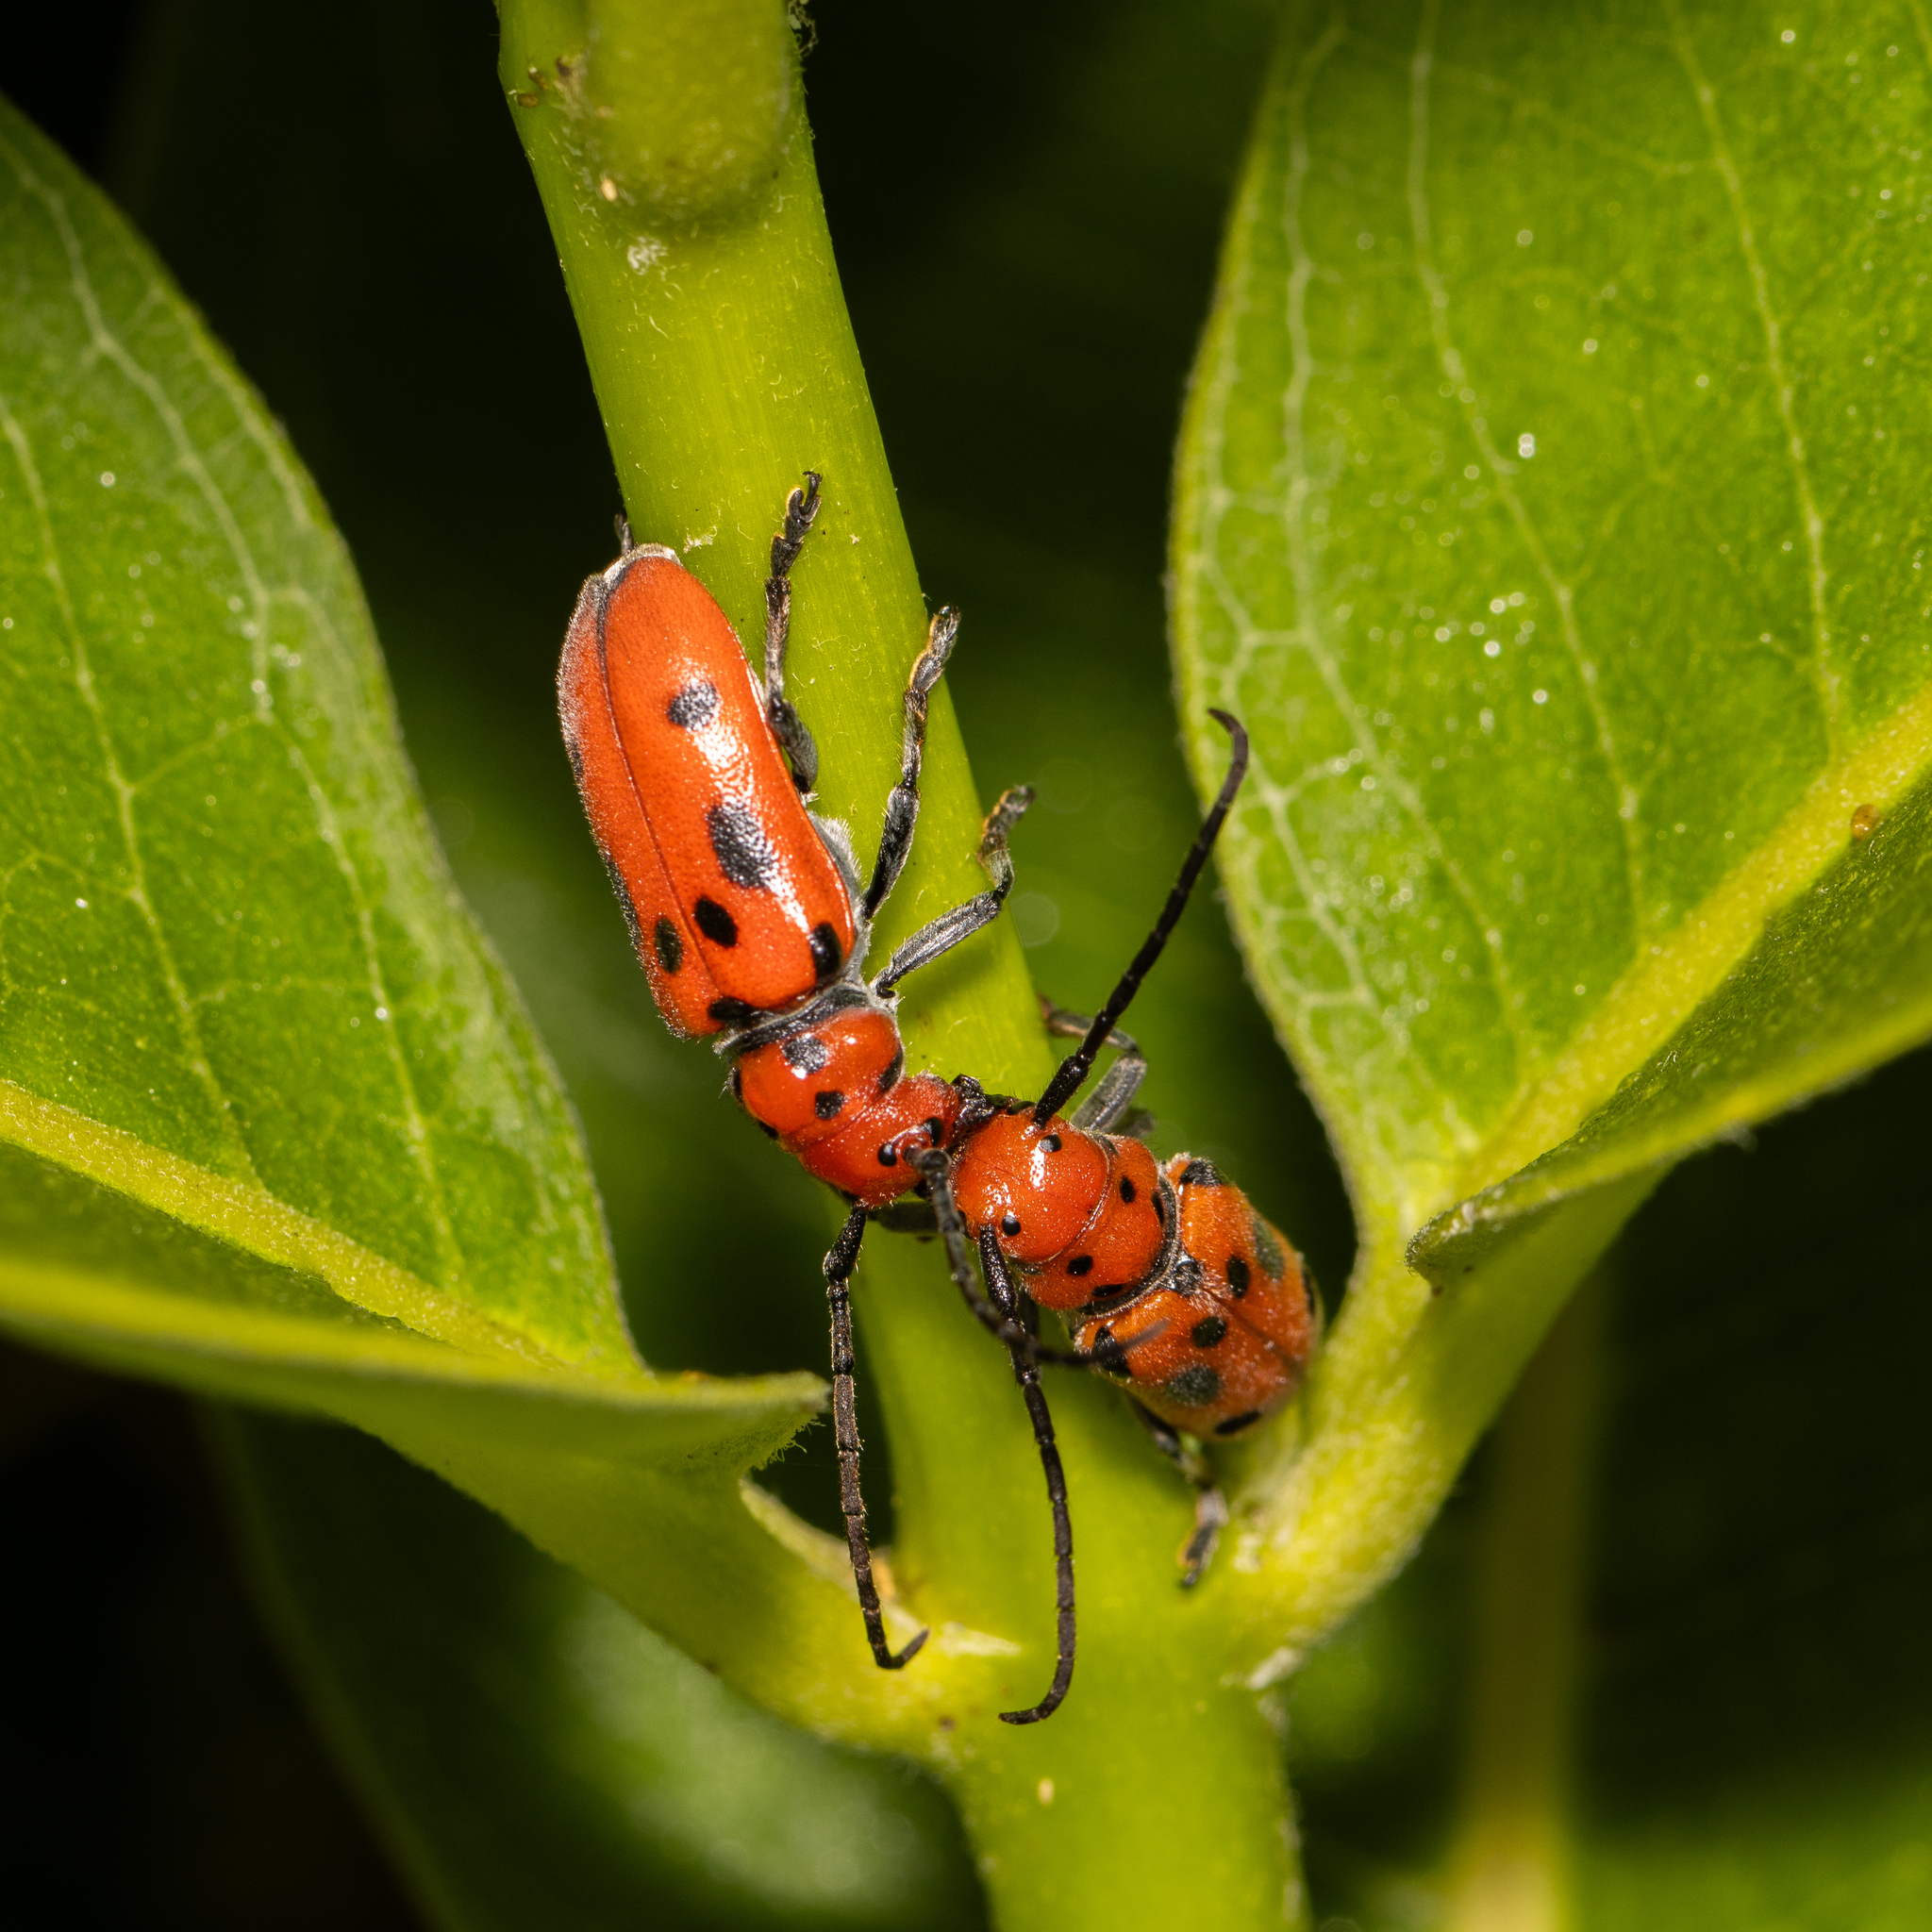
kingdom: Animalia
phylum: Arthropoda
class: Insecta
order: Coleoptera
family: Cerambycidae
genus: Tetraopes
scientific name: Tetraopes tetrophthalmus
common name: Red milkweed beetle
